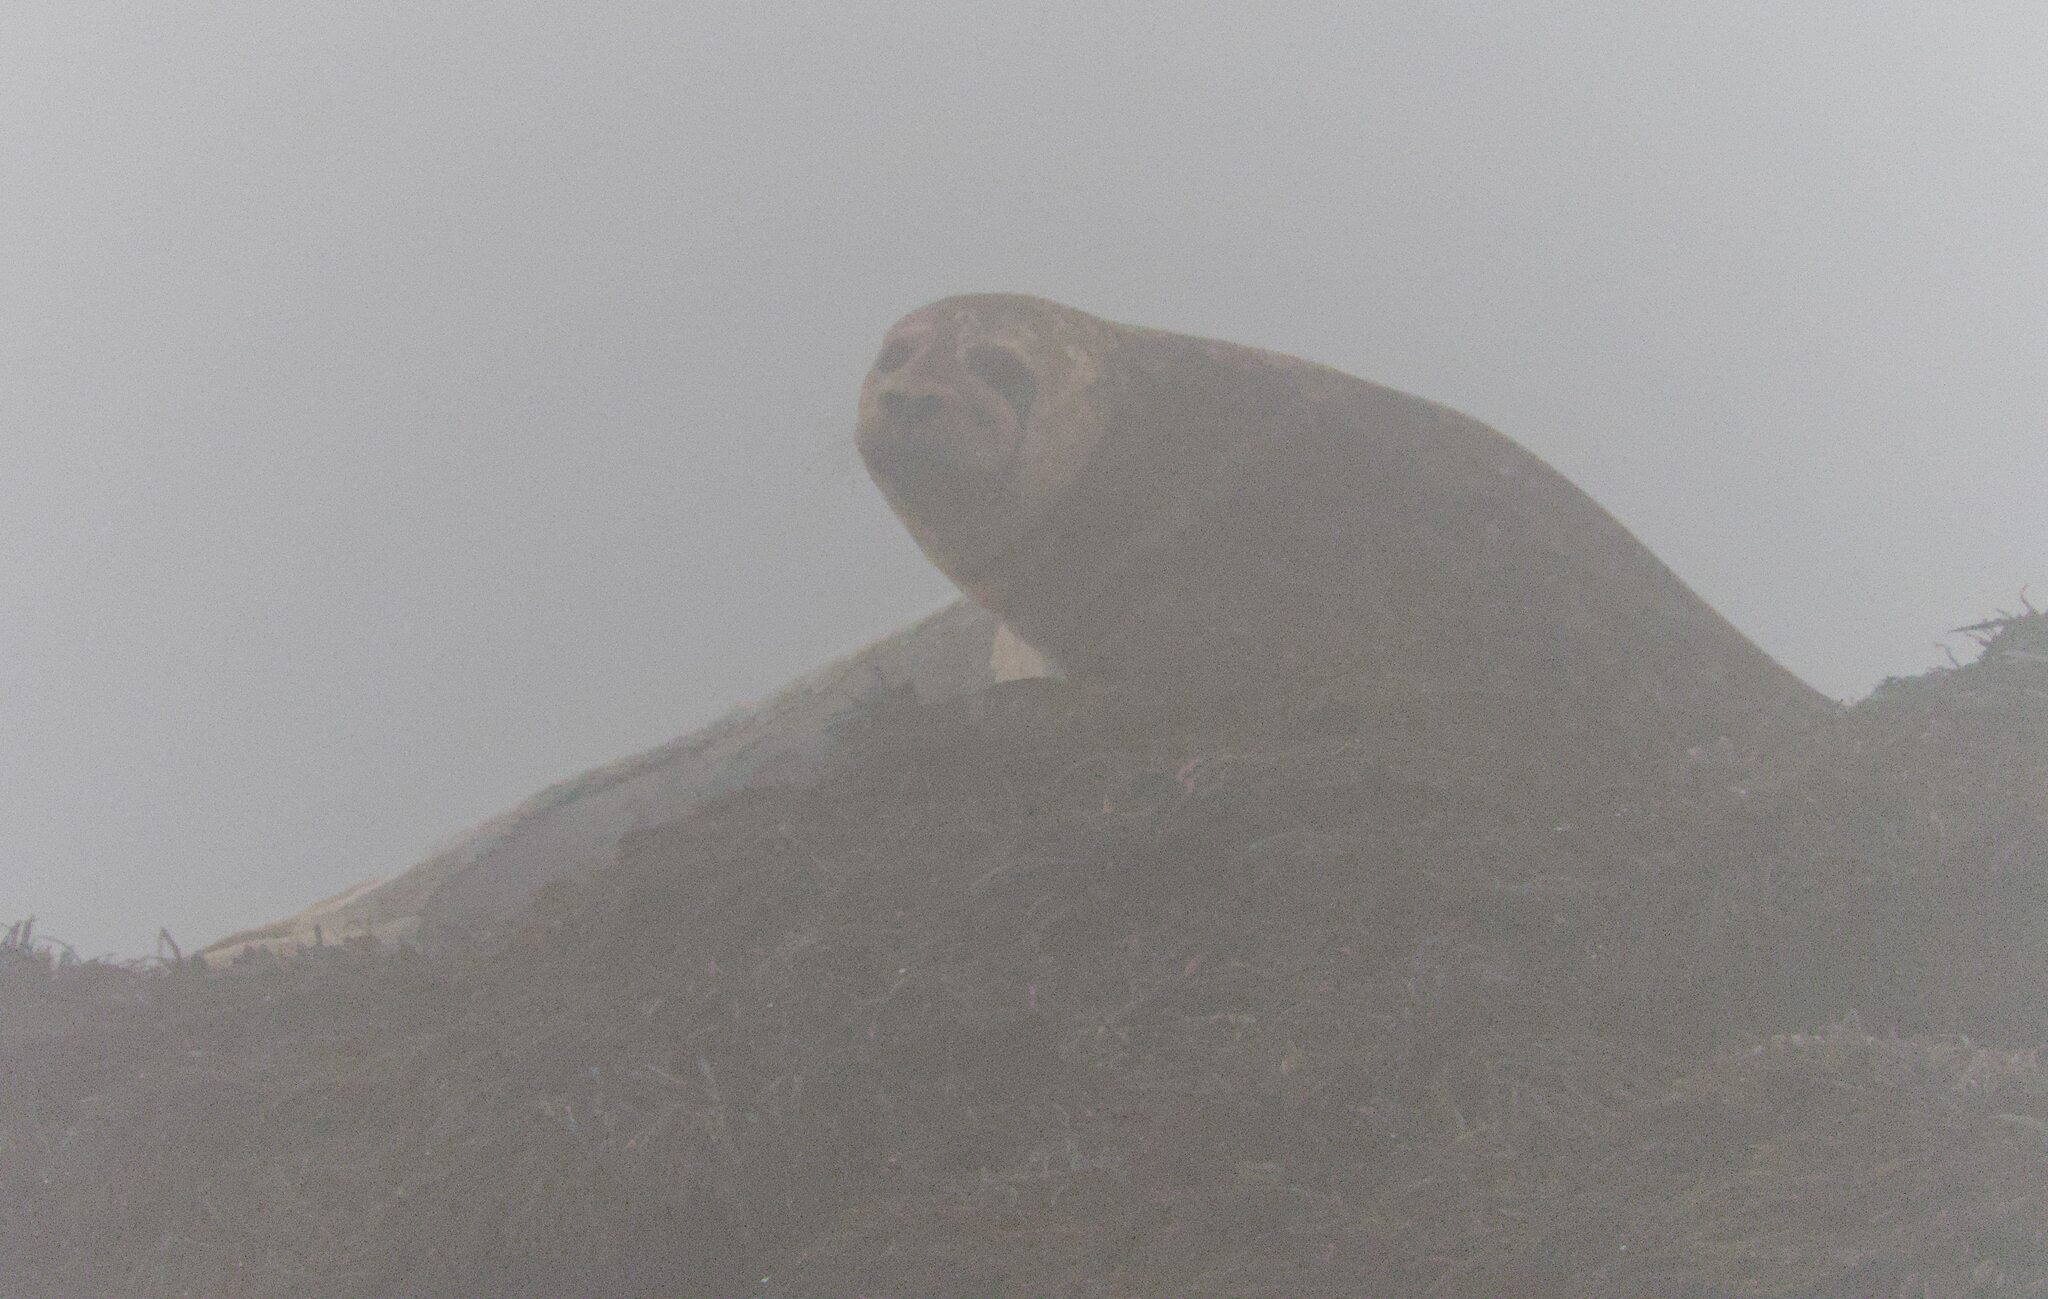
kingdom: Animalia
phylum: Chordata
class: Mammalia
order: Carnivora
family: Phocidae
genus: Phoca
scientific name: Phoca vitulina
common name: Harbor seal
